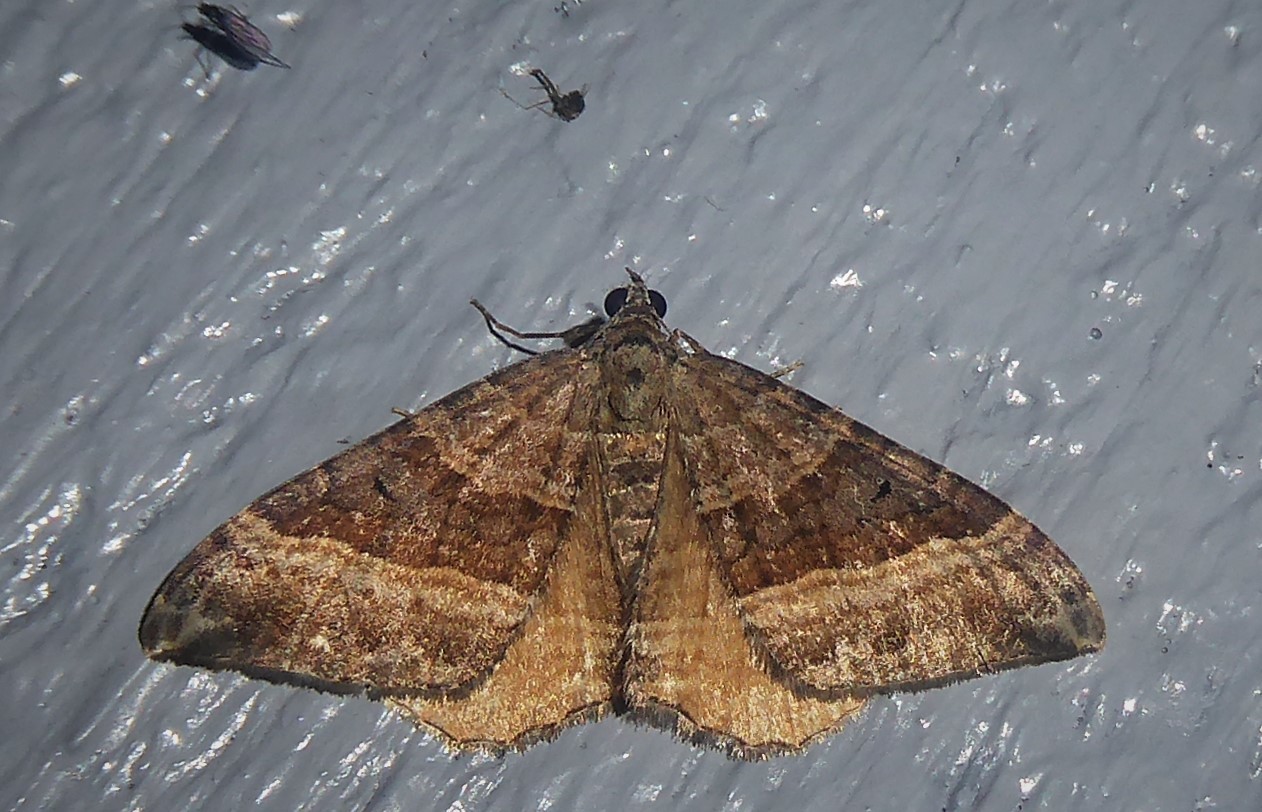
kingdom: Animalia
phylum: Arthropoda
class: Insecta
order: Lepidoptera
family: Geometridae
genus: Hydriomena
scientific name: Hydriomena deltoidata
